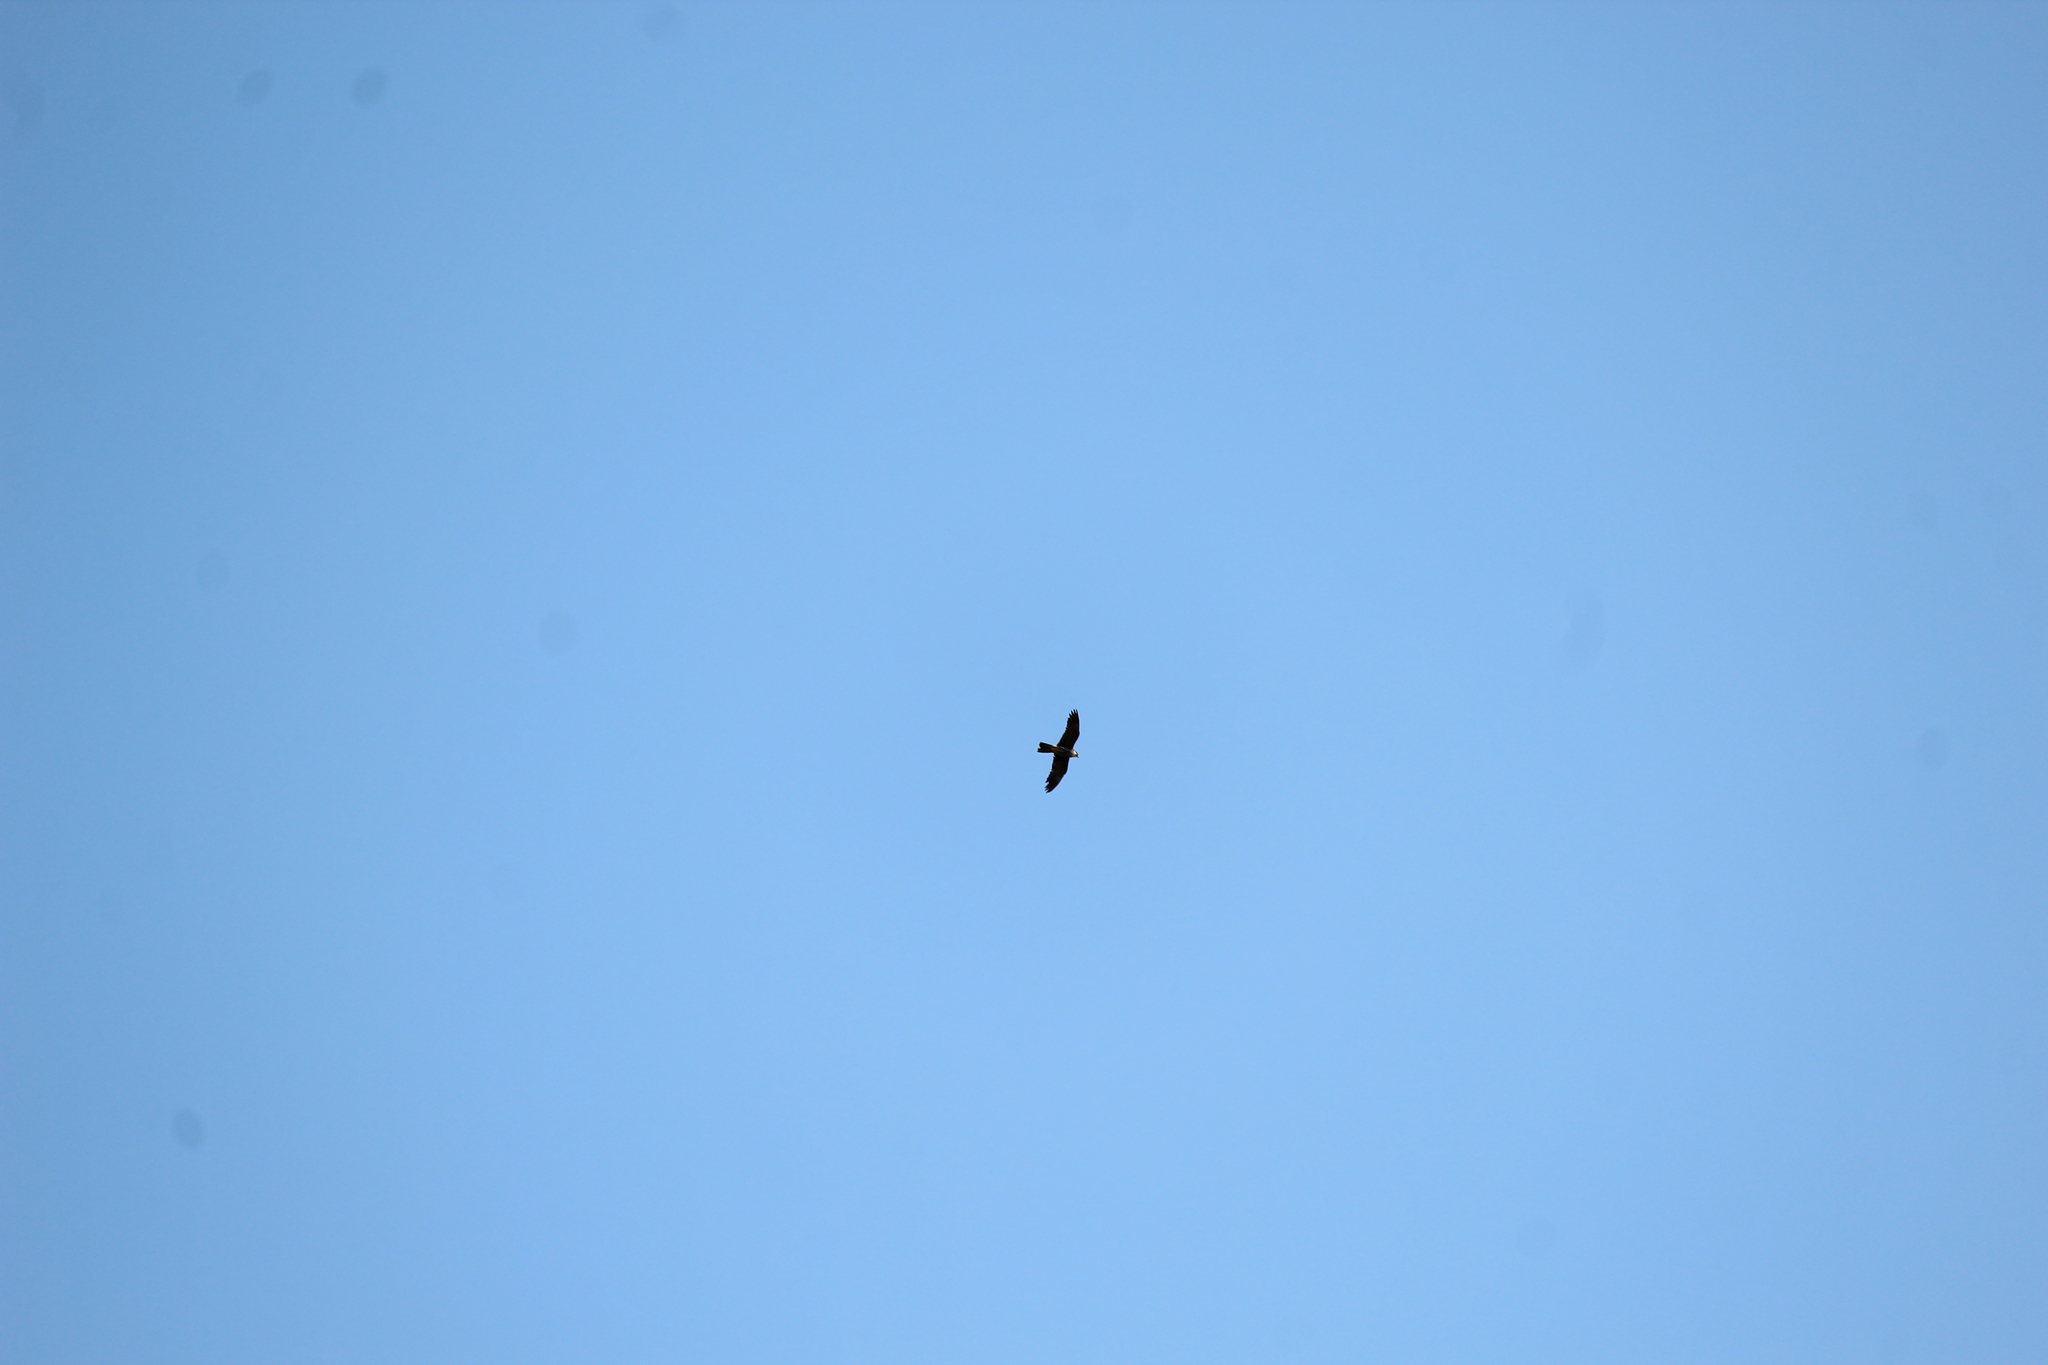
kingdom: Animalia
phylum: Chordata
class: Aves
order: Falconiformes
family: Falconidae
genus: Falco
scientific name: Falco subbuteo
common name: Eurasian hobby
